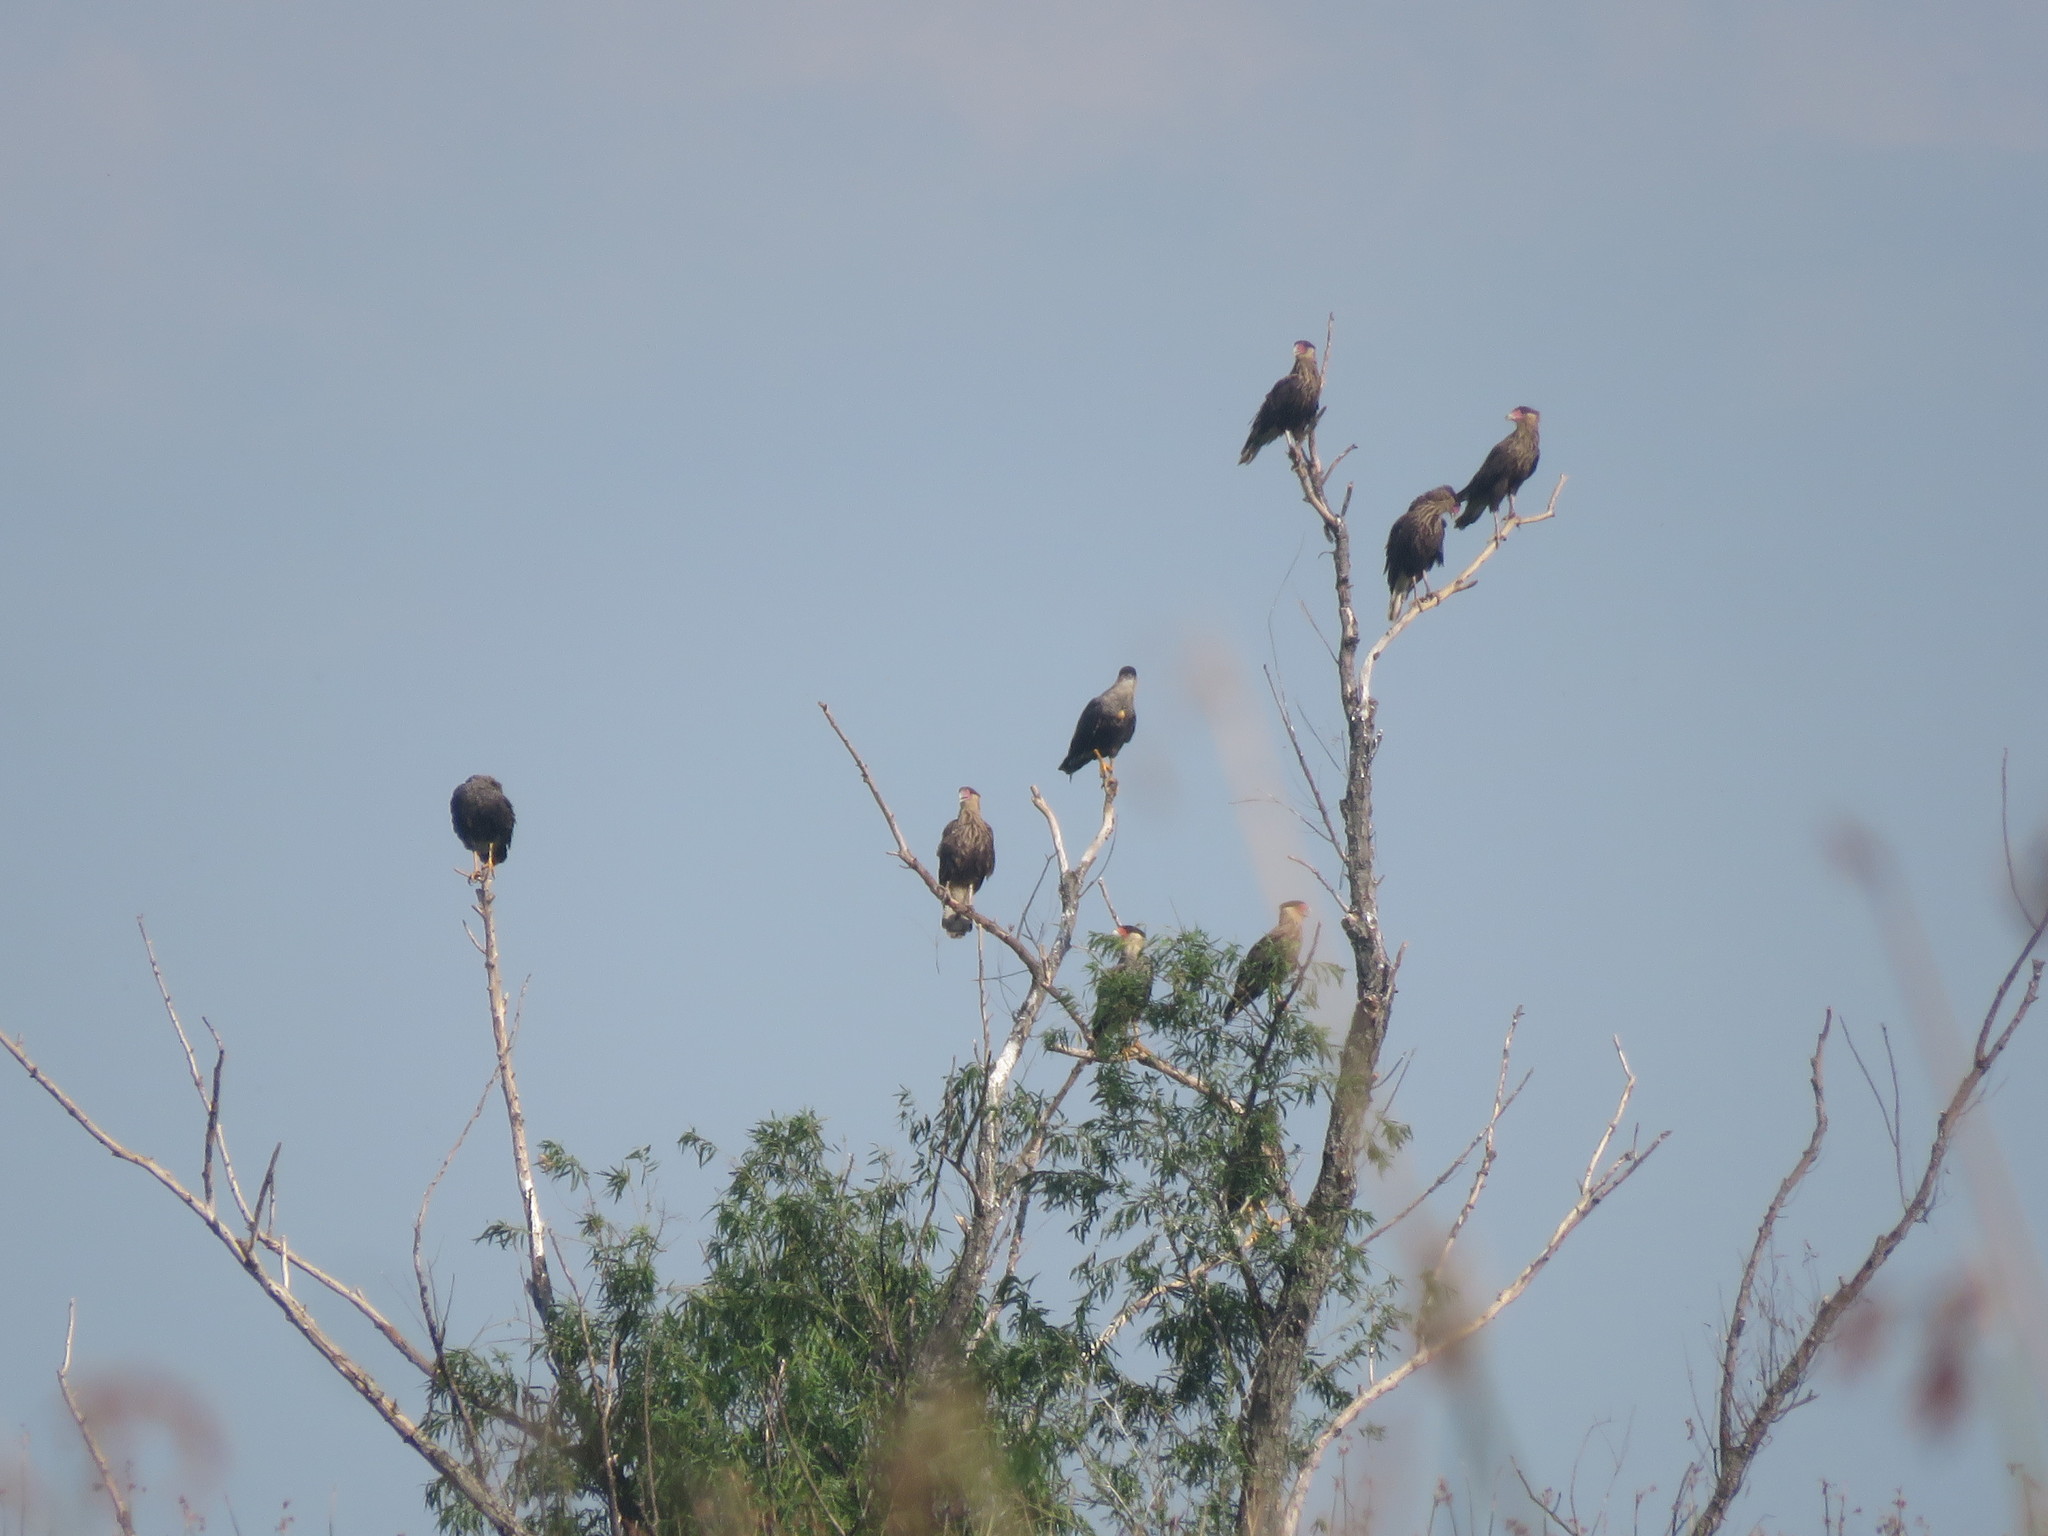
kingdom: Animalia
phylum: Chordata
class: Aves
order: Falconiformes
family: Falconidae
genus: Caracara
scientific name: Caracara plancus
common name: Southern caracara
